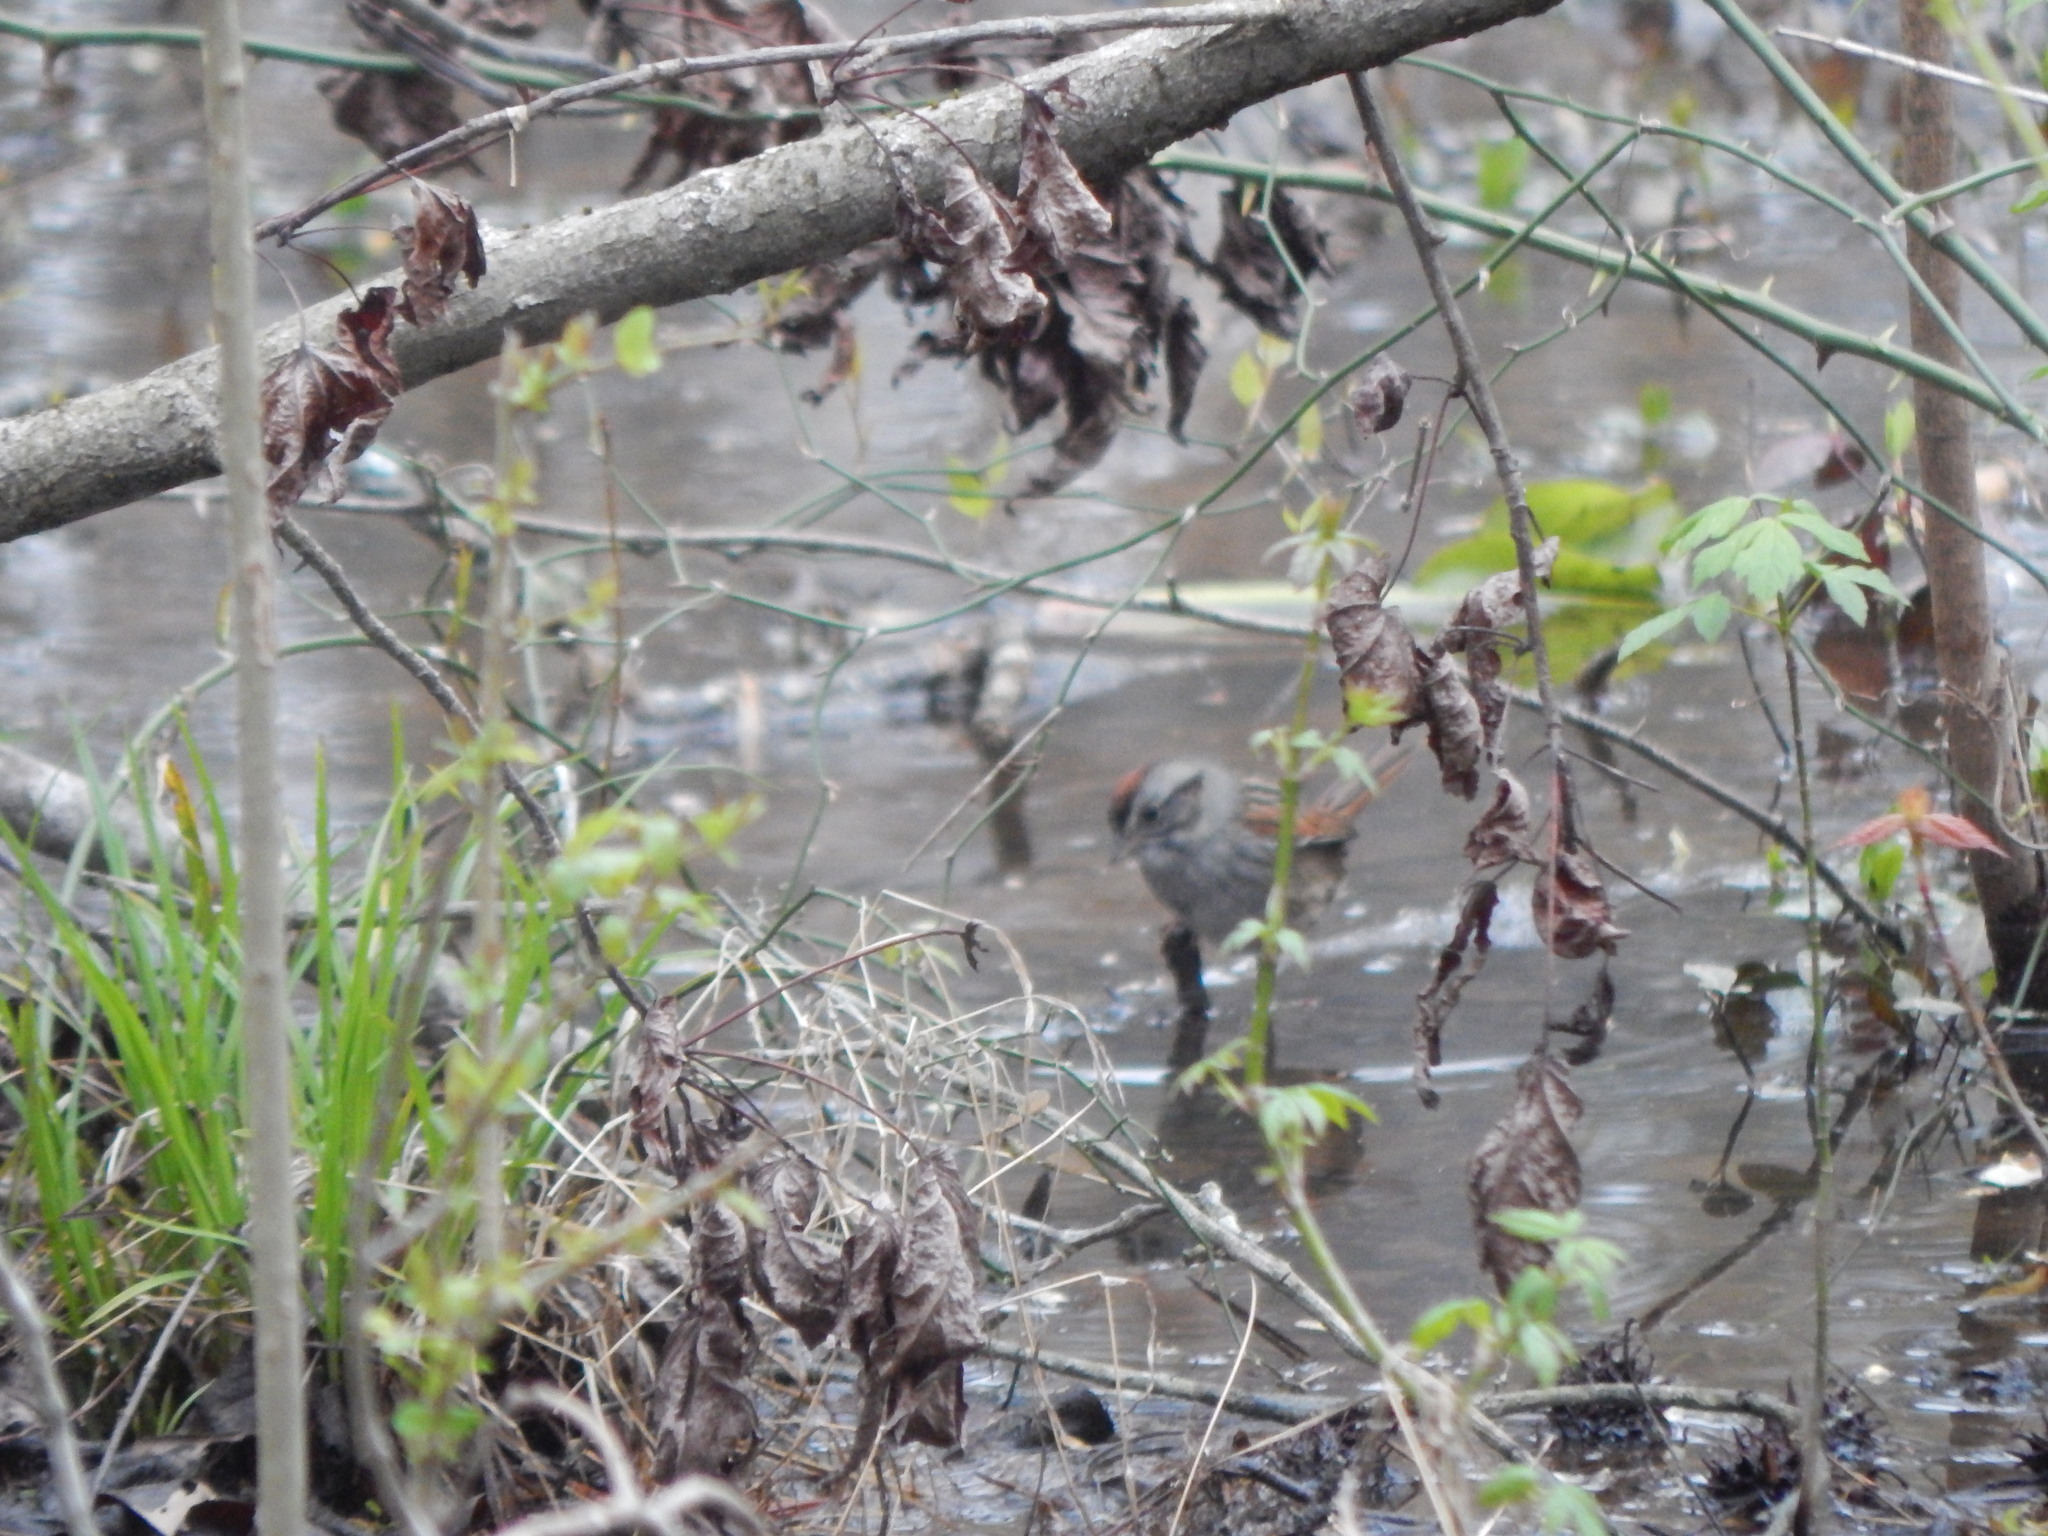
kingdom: Animalia
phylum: Chordata
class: Aves
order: Passeriformes
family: Passerellidae
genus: Melospiza
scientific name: Melospiza georgiana
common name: Swamp sparrow
